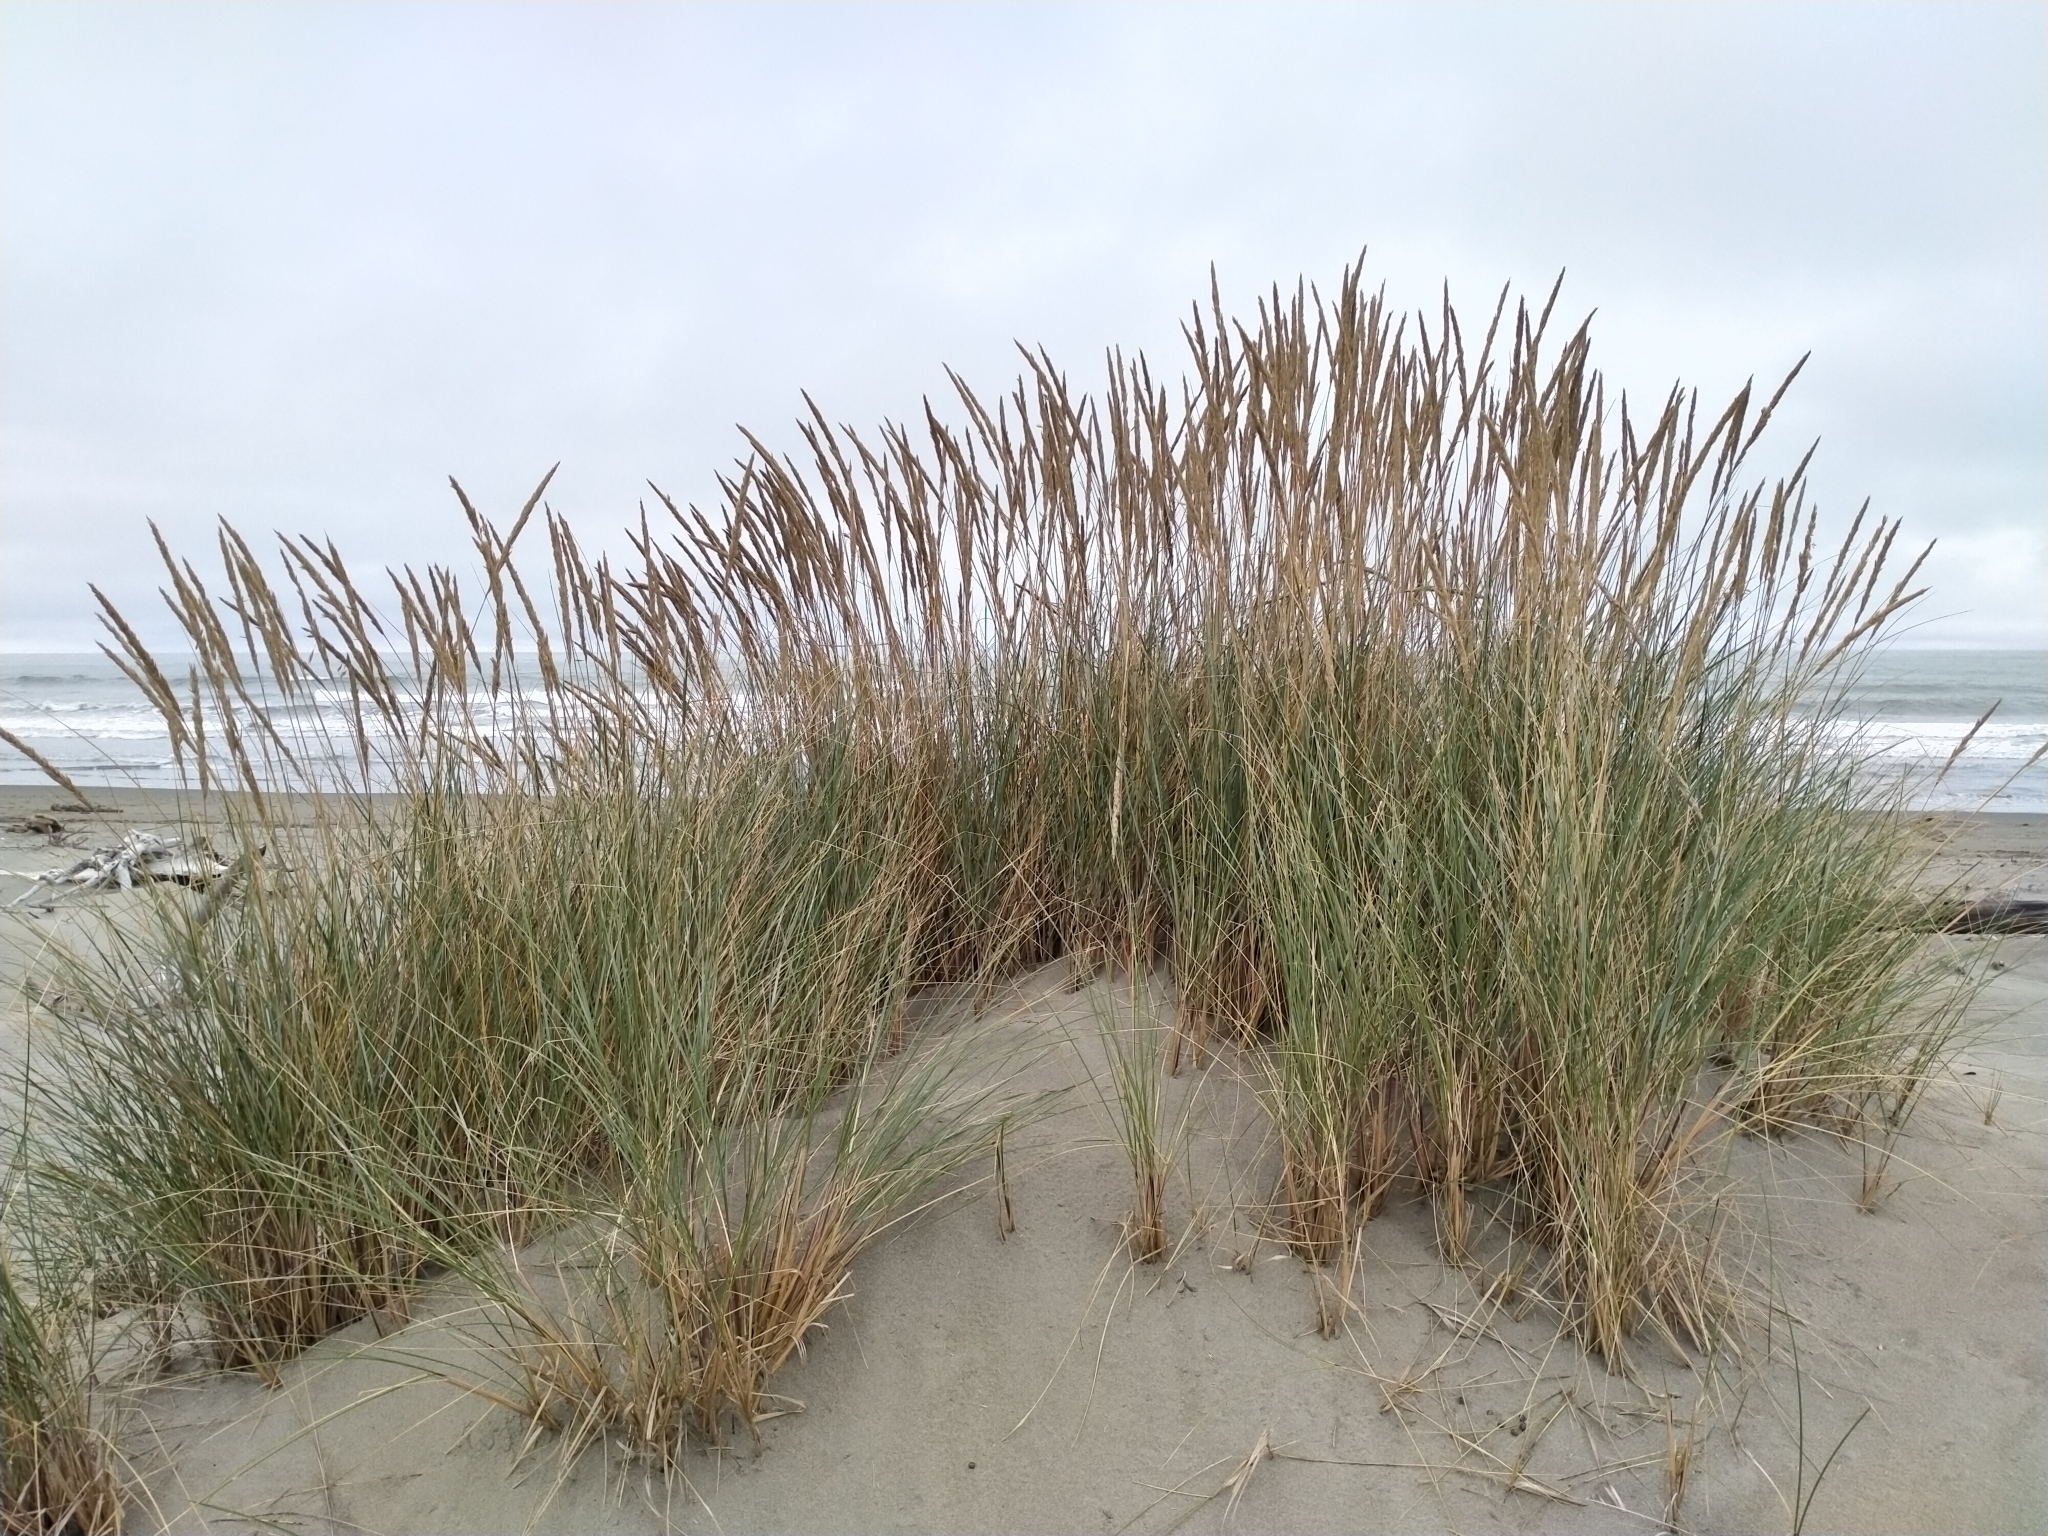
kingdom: Plantae
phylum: Tracheophyta
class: Liliopsida
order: Poales
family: Poaceae
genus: Calamagrostis
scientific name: Calamagrostis arenaria
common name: European beachgrass
